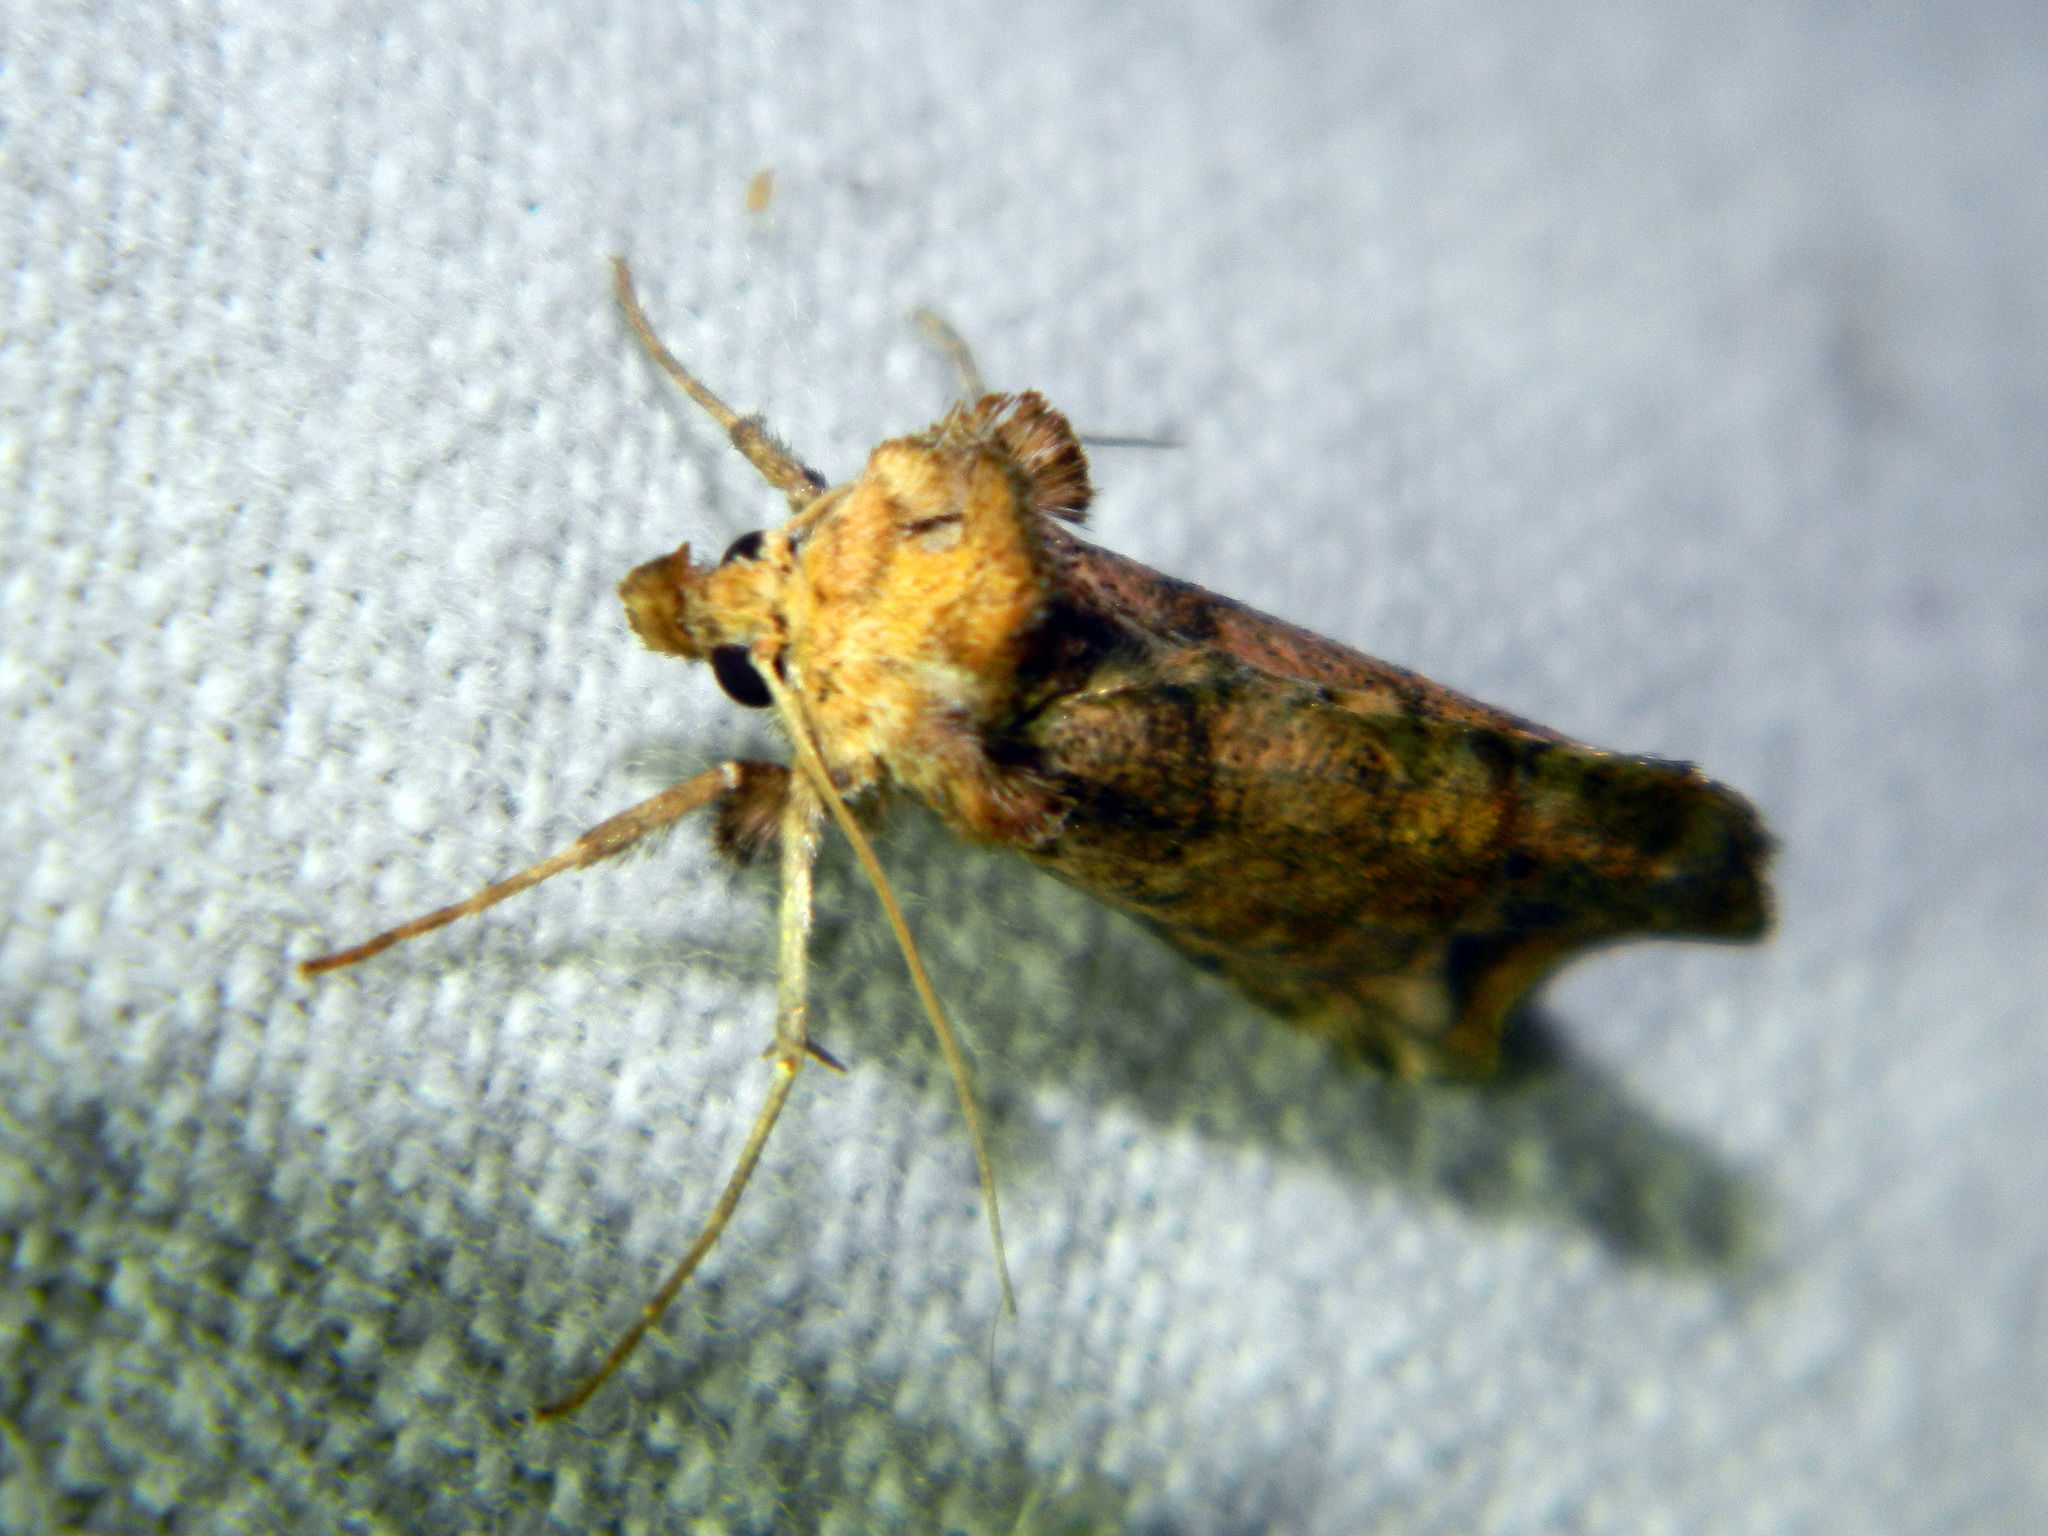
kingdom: Animalia
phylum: Arthropoda
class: Insecta
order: Lepidoptera
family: Noctuidae
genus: Pseudeva
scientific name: Pseudeva purpurigera
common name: Straight-lined looper moth
